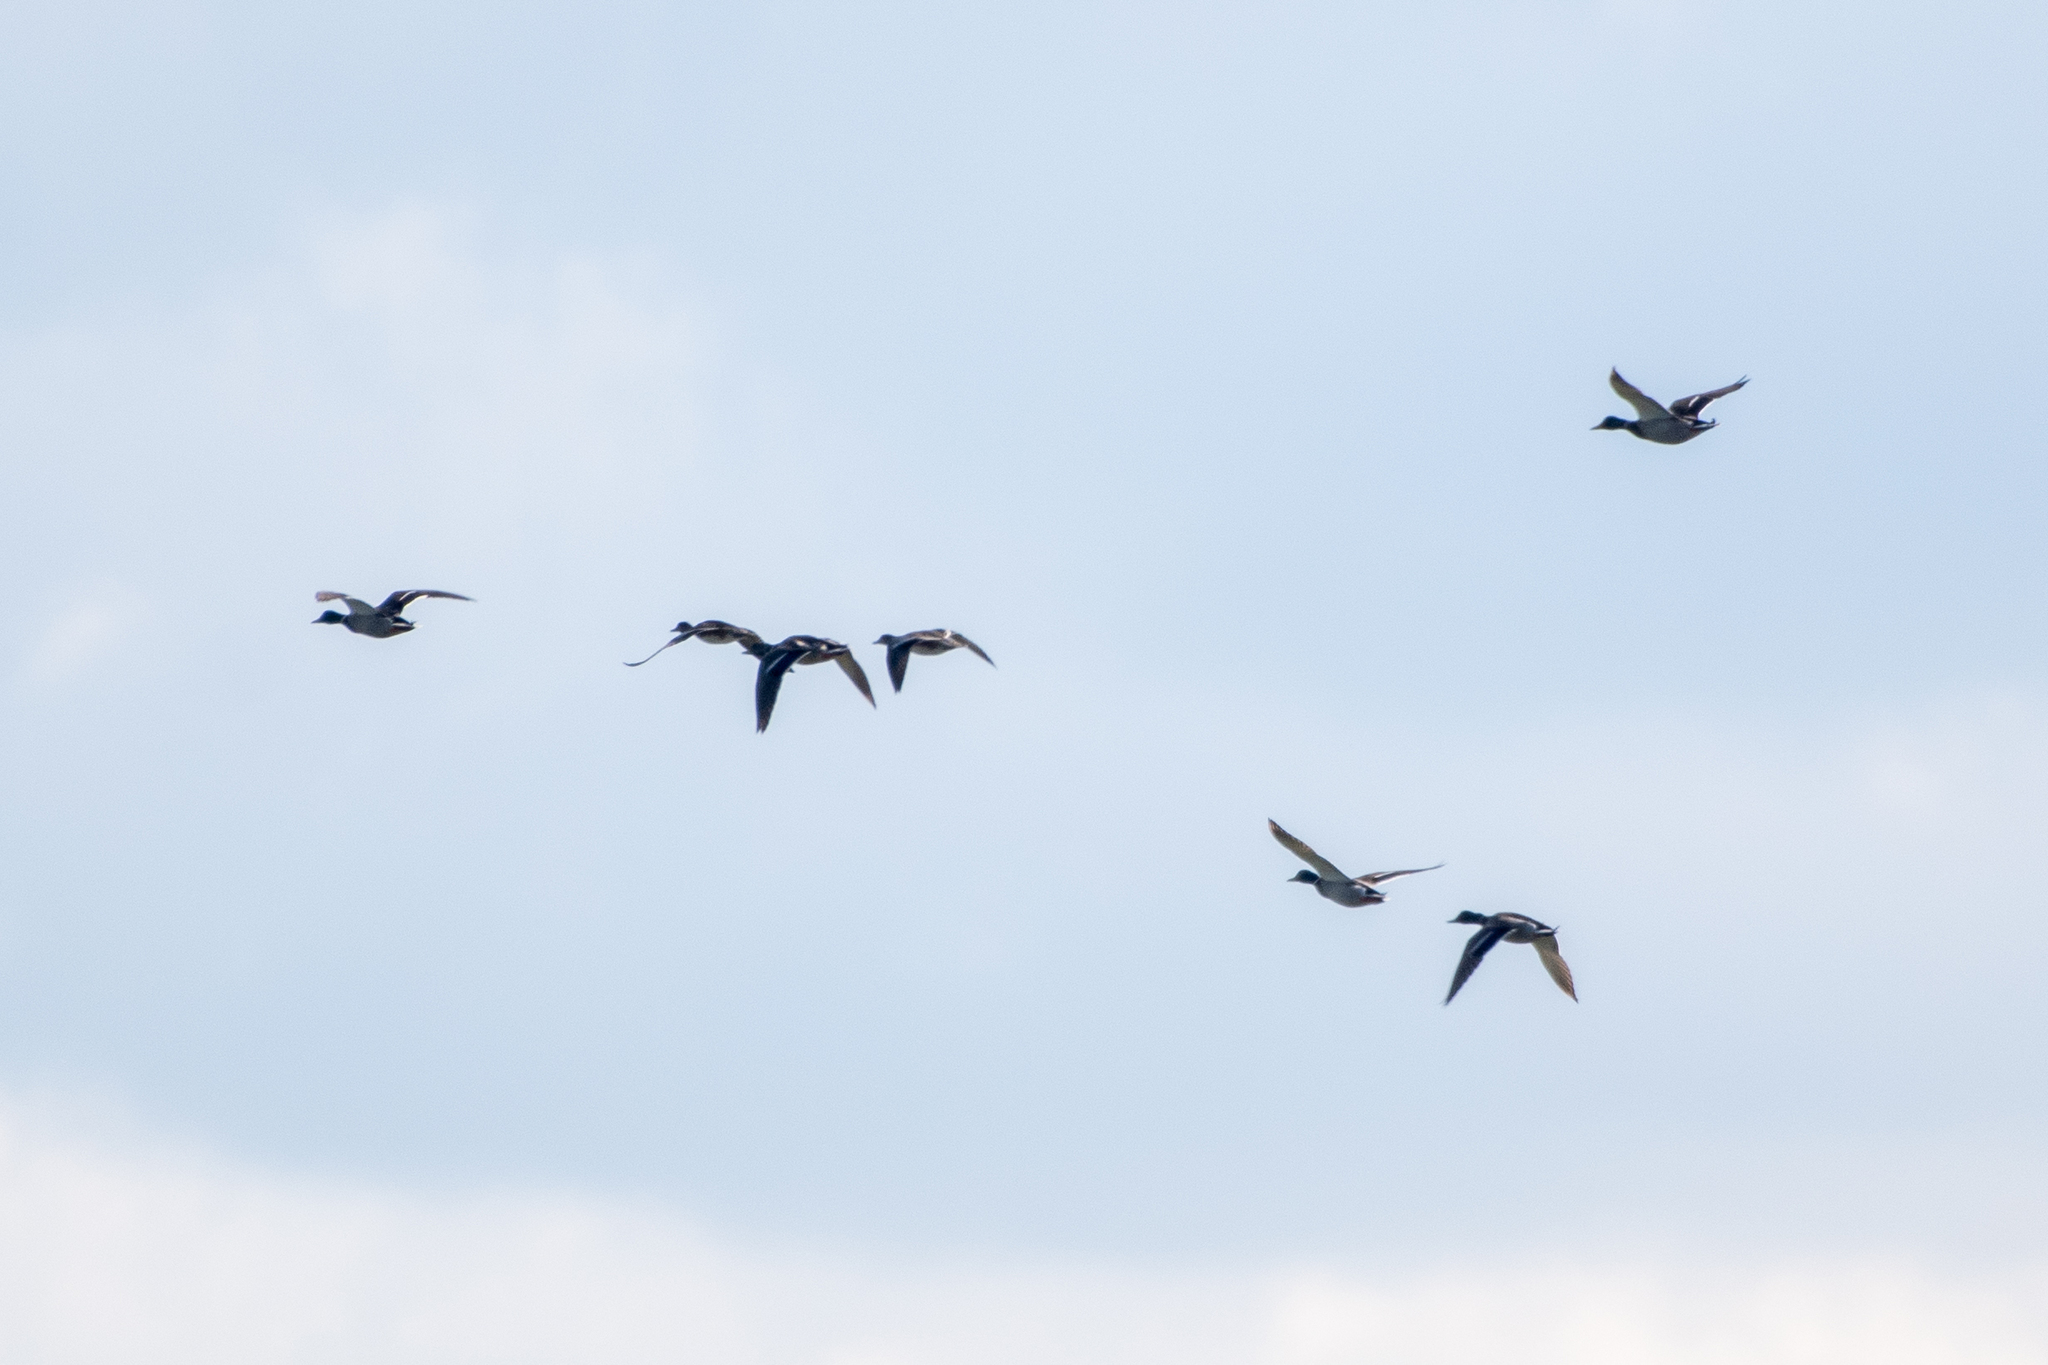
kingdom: Animalia
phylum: Chordata
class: Aves
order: Anseriformes
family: Anatidae
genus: Anas
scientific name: Anas platyrhynchos
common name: Mallard
